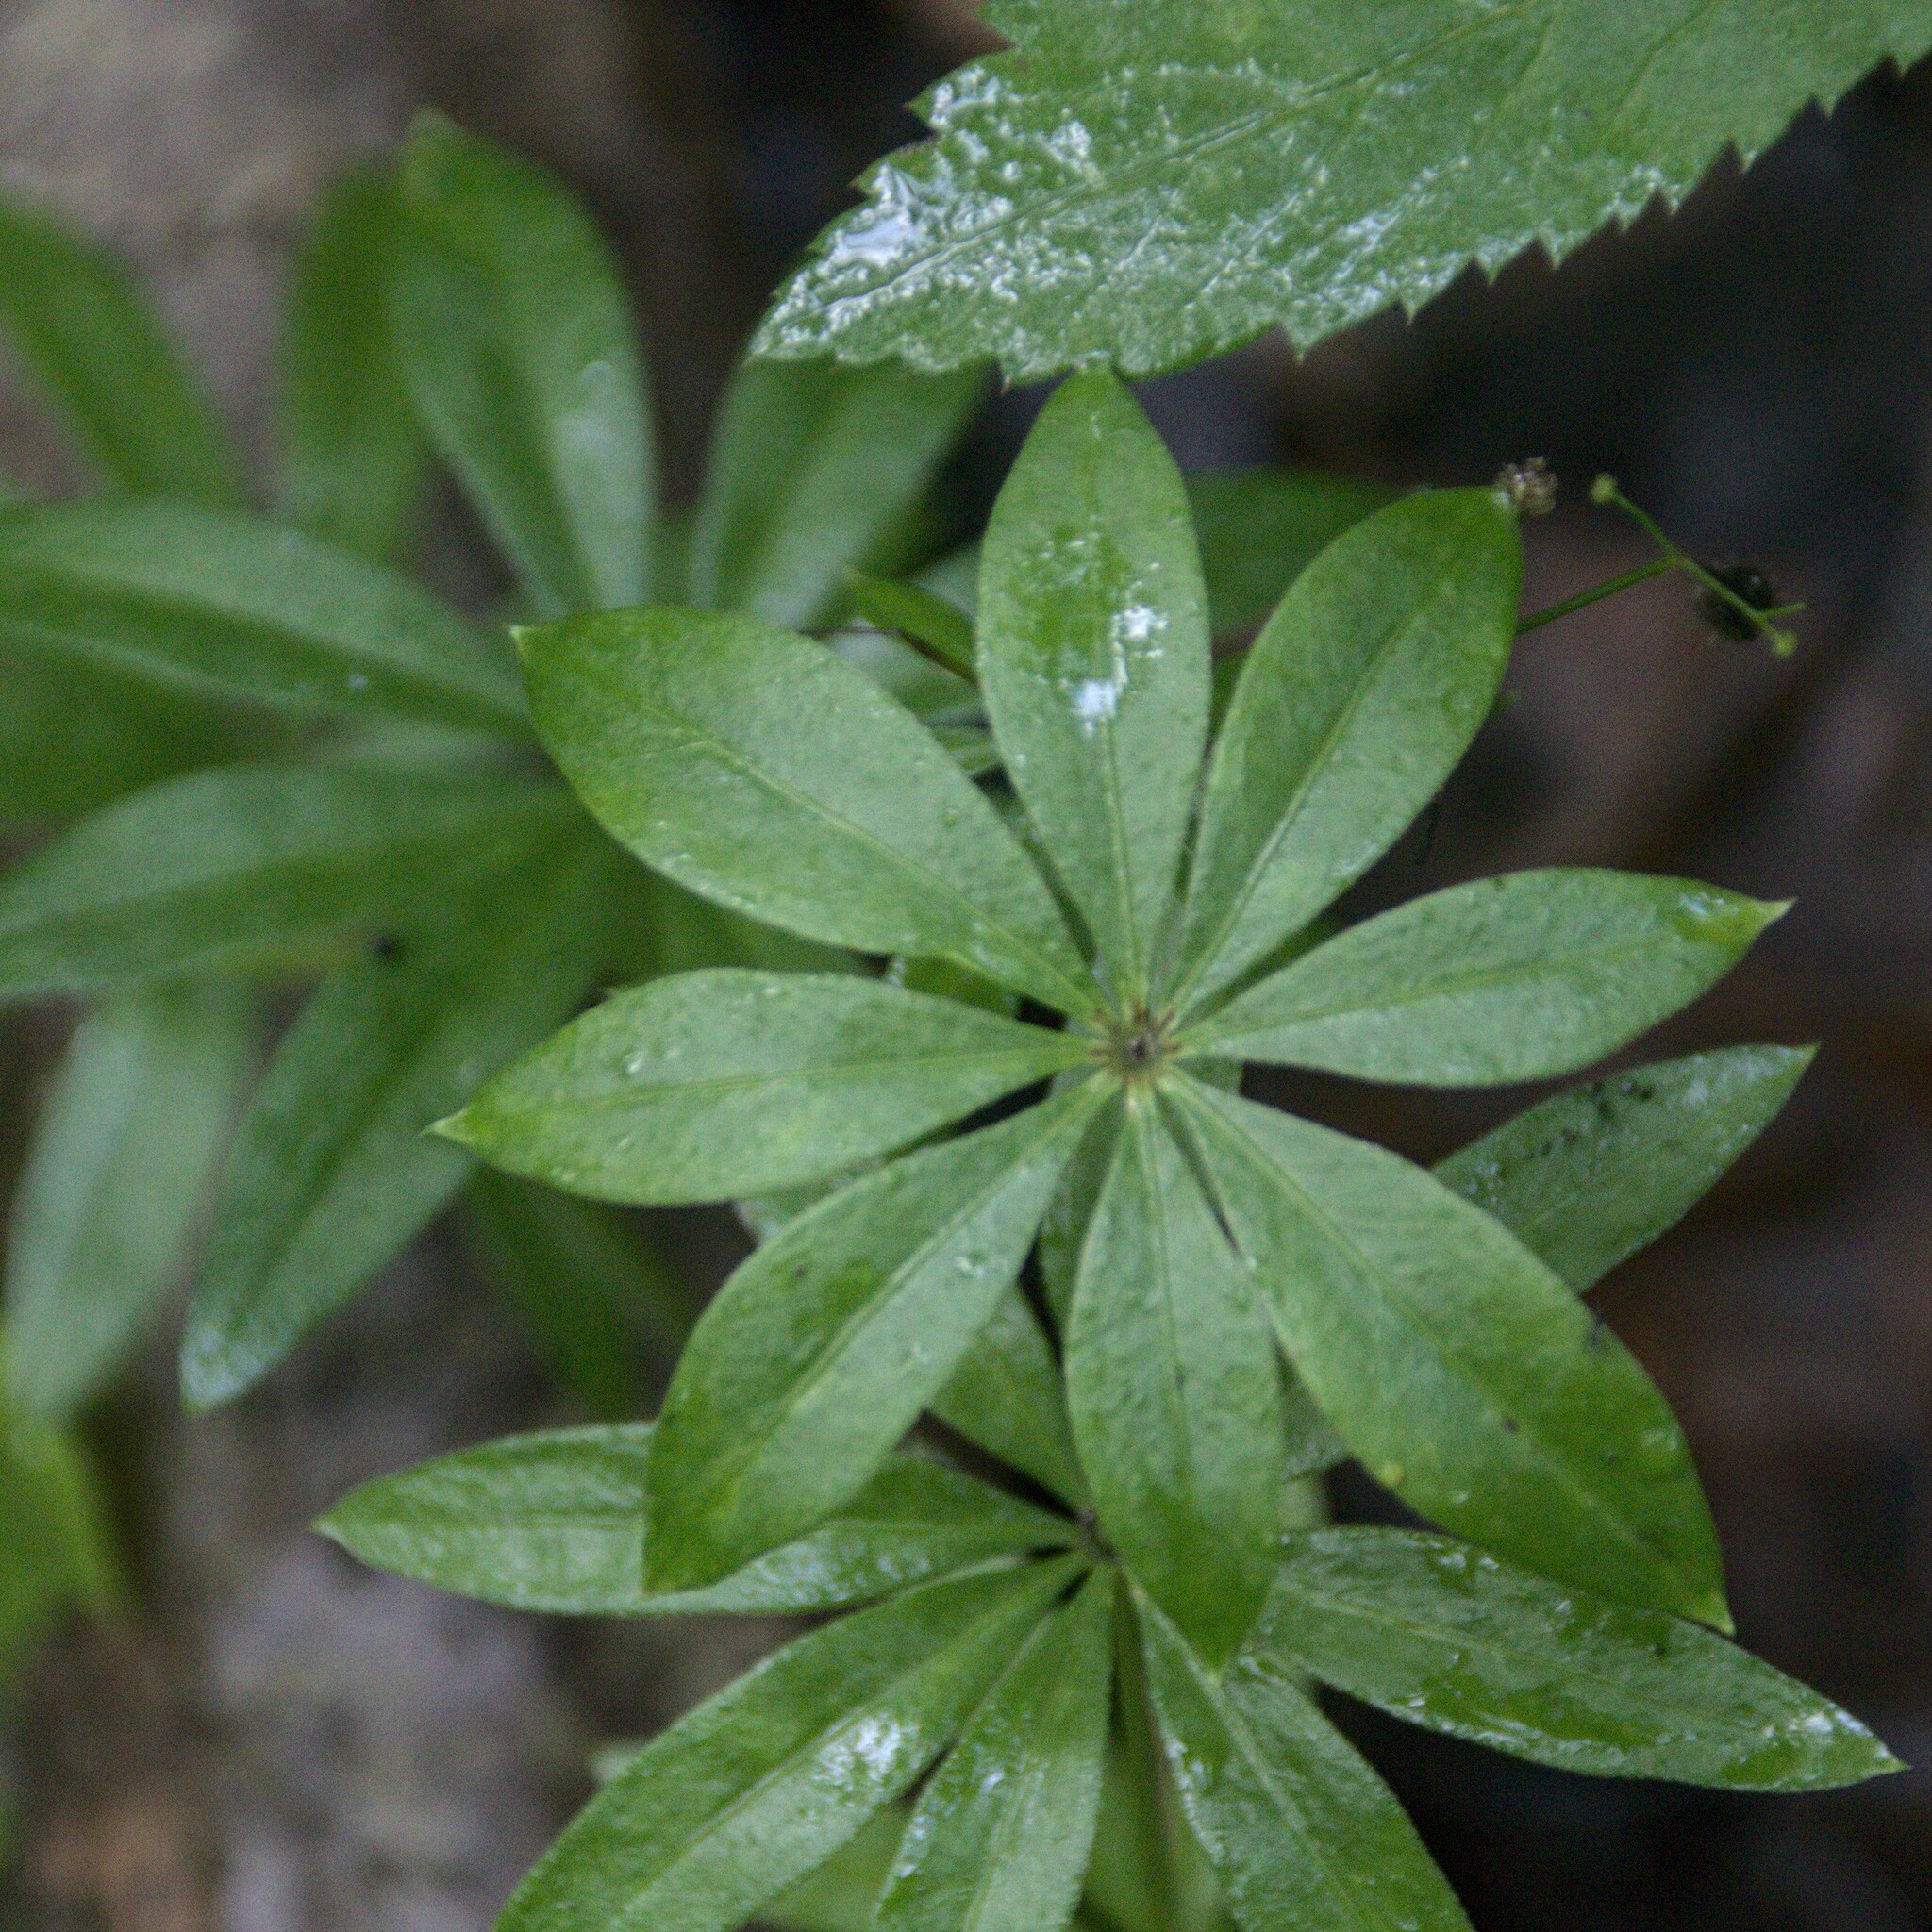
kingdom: Plantae
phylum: Tracheophyta
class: Magnoliopsida
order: Gentianales
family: Rubiaceae
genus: Galium
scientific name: Galium odoratum
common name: Sweet woodruff
